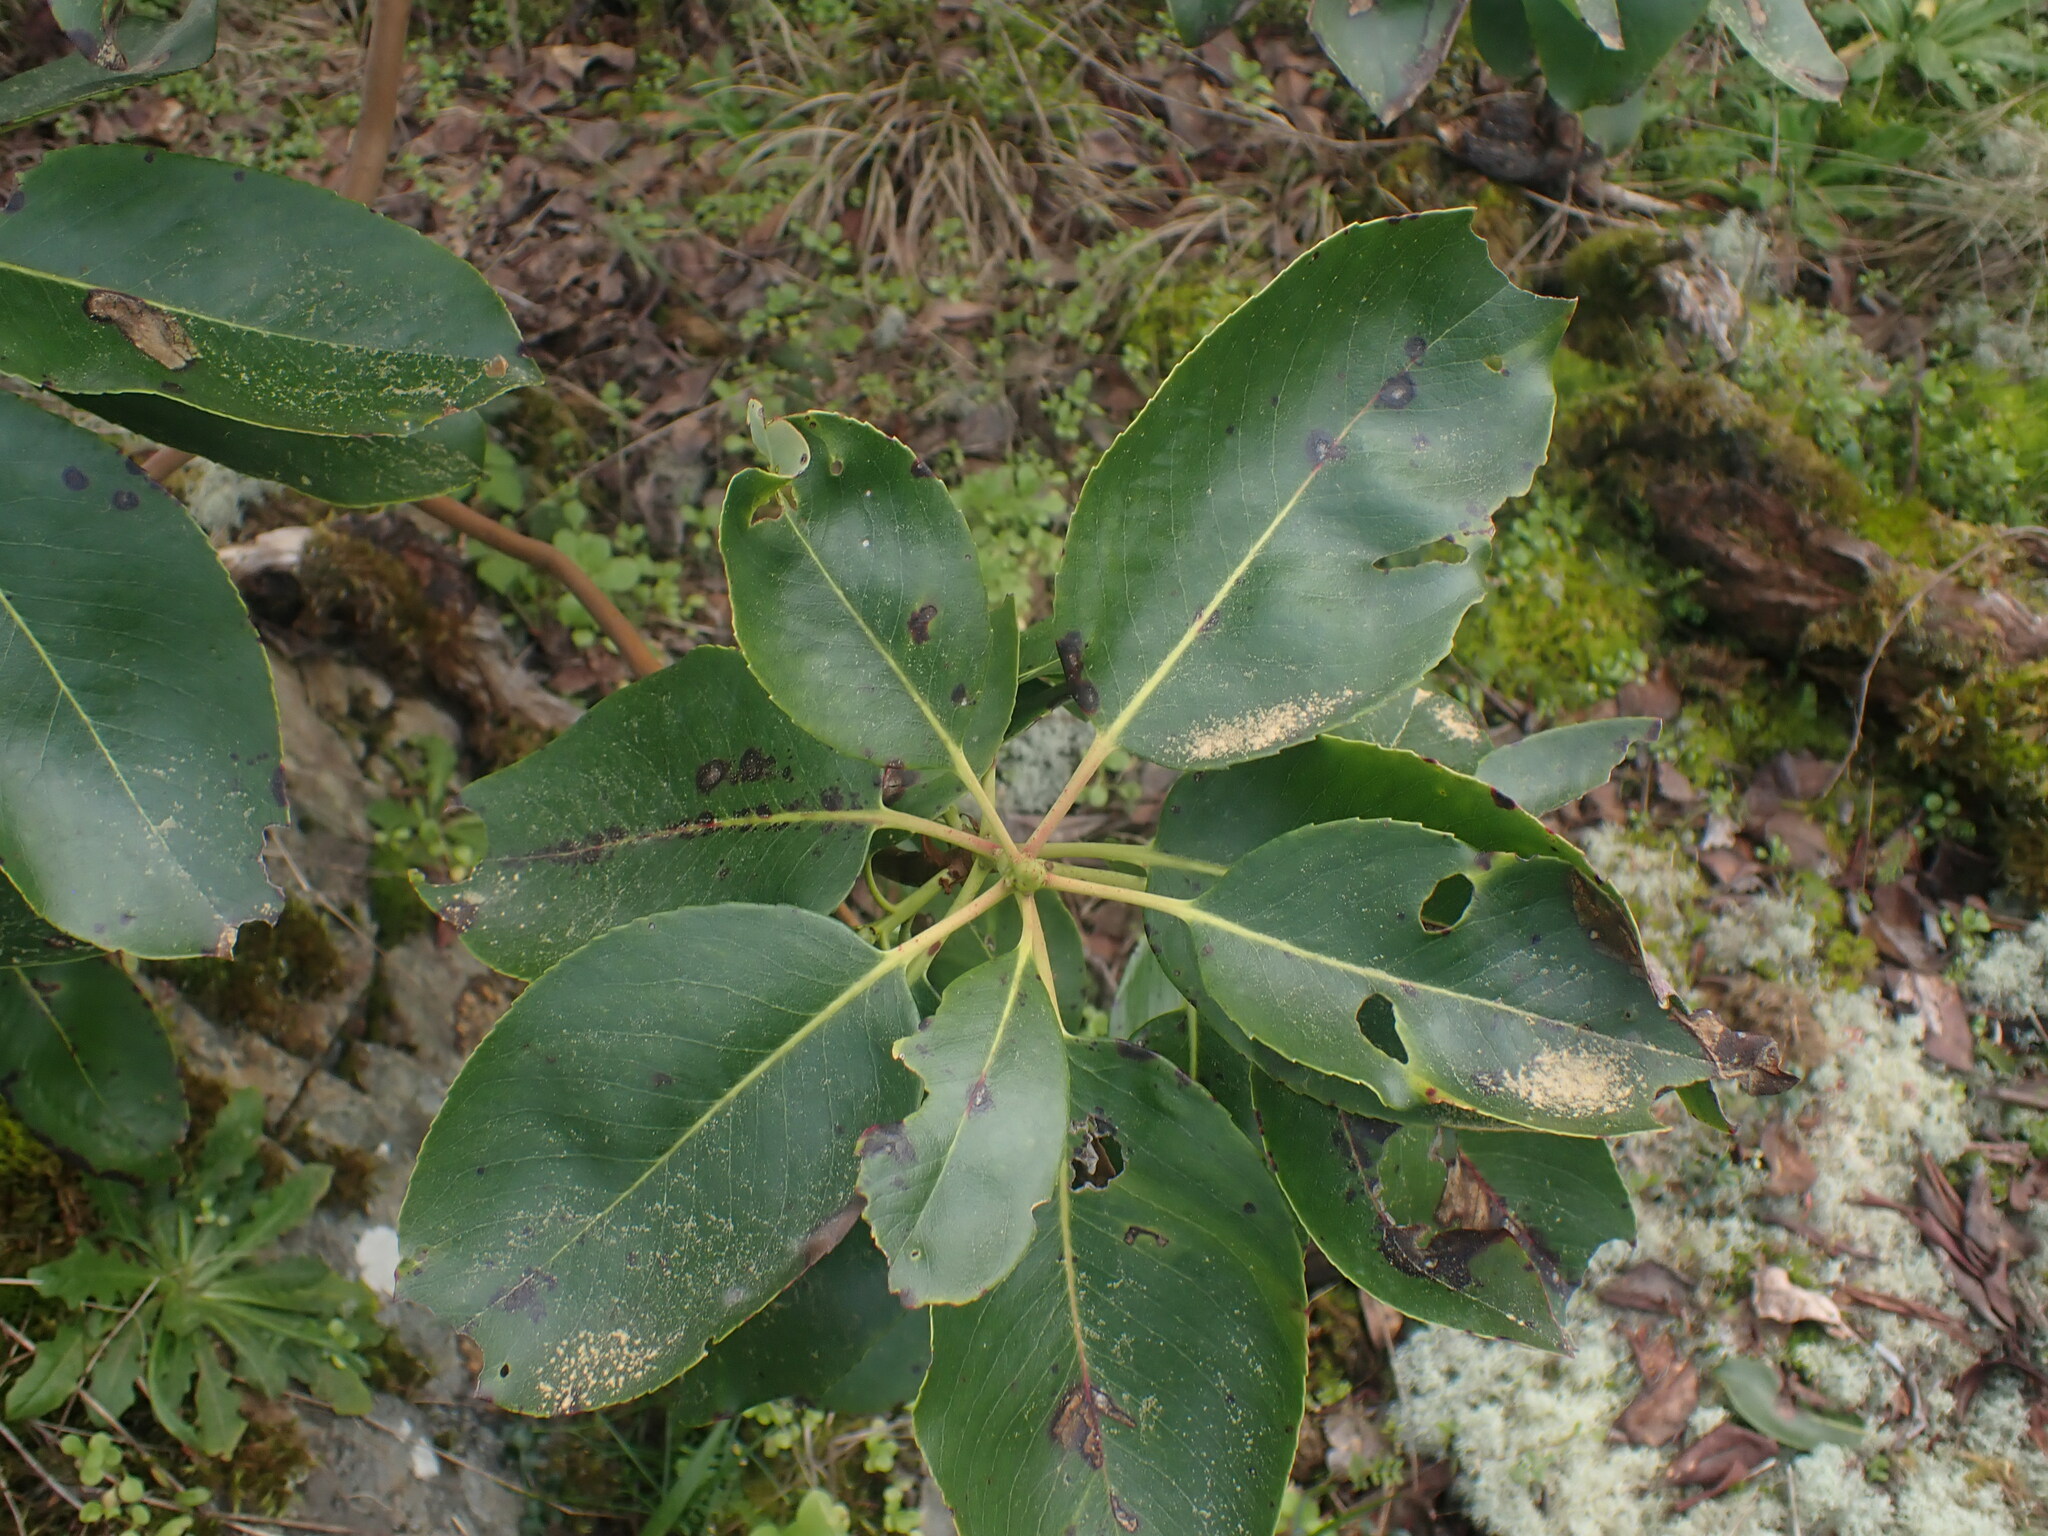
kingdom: Plantae
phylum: Tracheophyta
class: Magnoliopsida
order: Ericales
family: Ericaceae
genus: Arbutus
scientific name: Arbutus menziesii
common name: Pacific madrone
